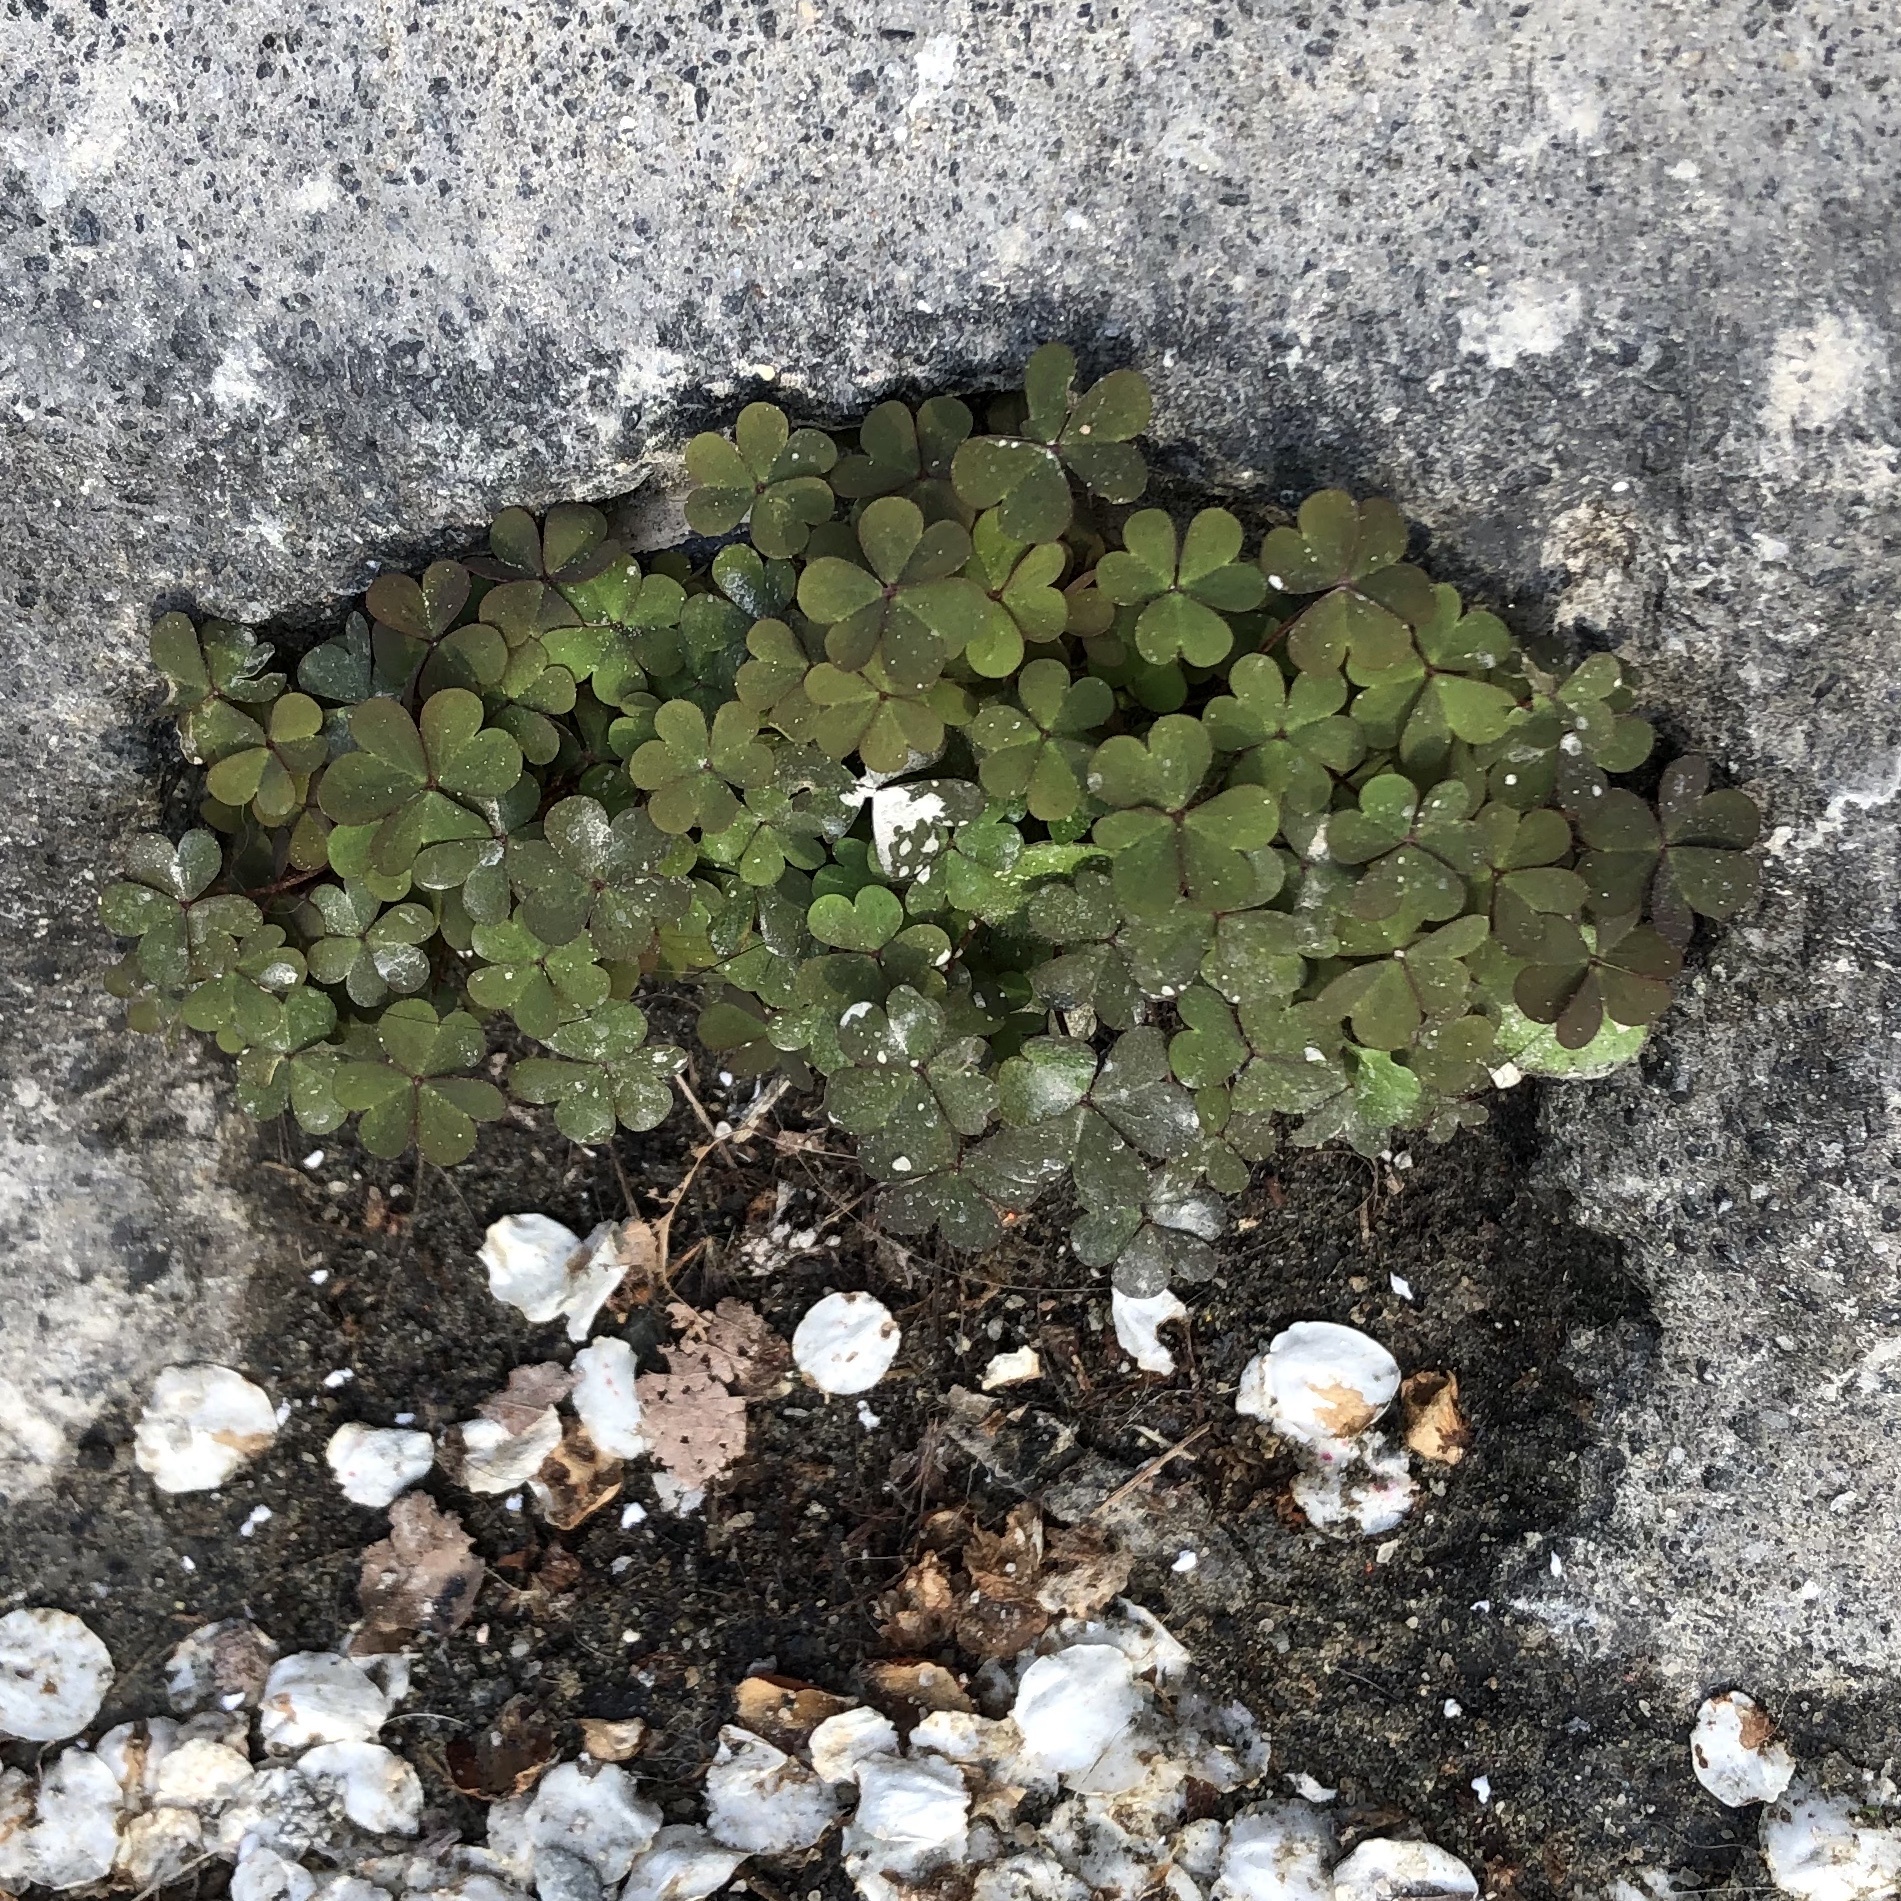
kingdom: Plantae
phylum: Tracheophyta
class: Magnoliopsida
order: Oxalidales
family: Oxalidaceae
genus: Oxalis
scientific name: Oxalis corniculata
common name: Procumbent yellow-sorrel
